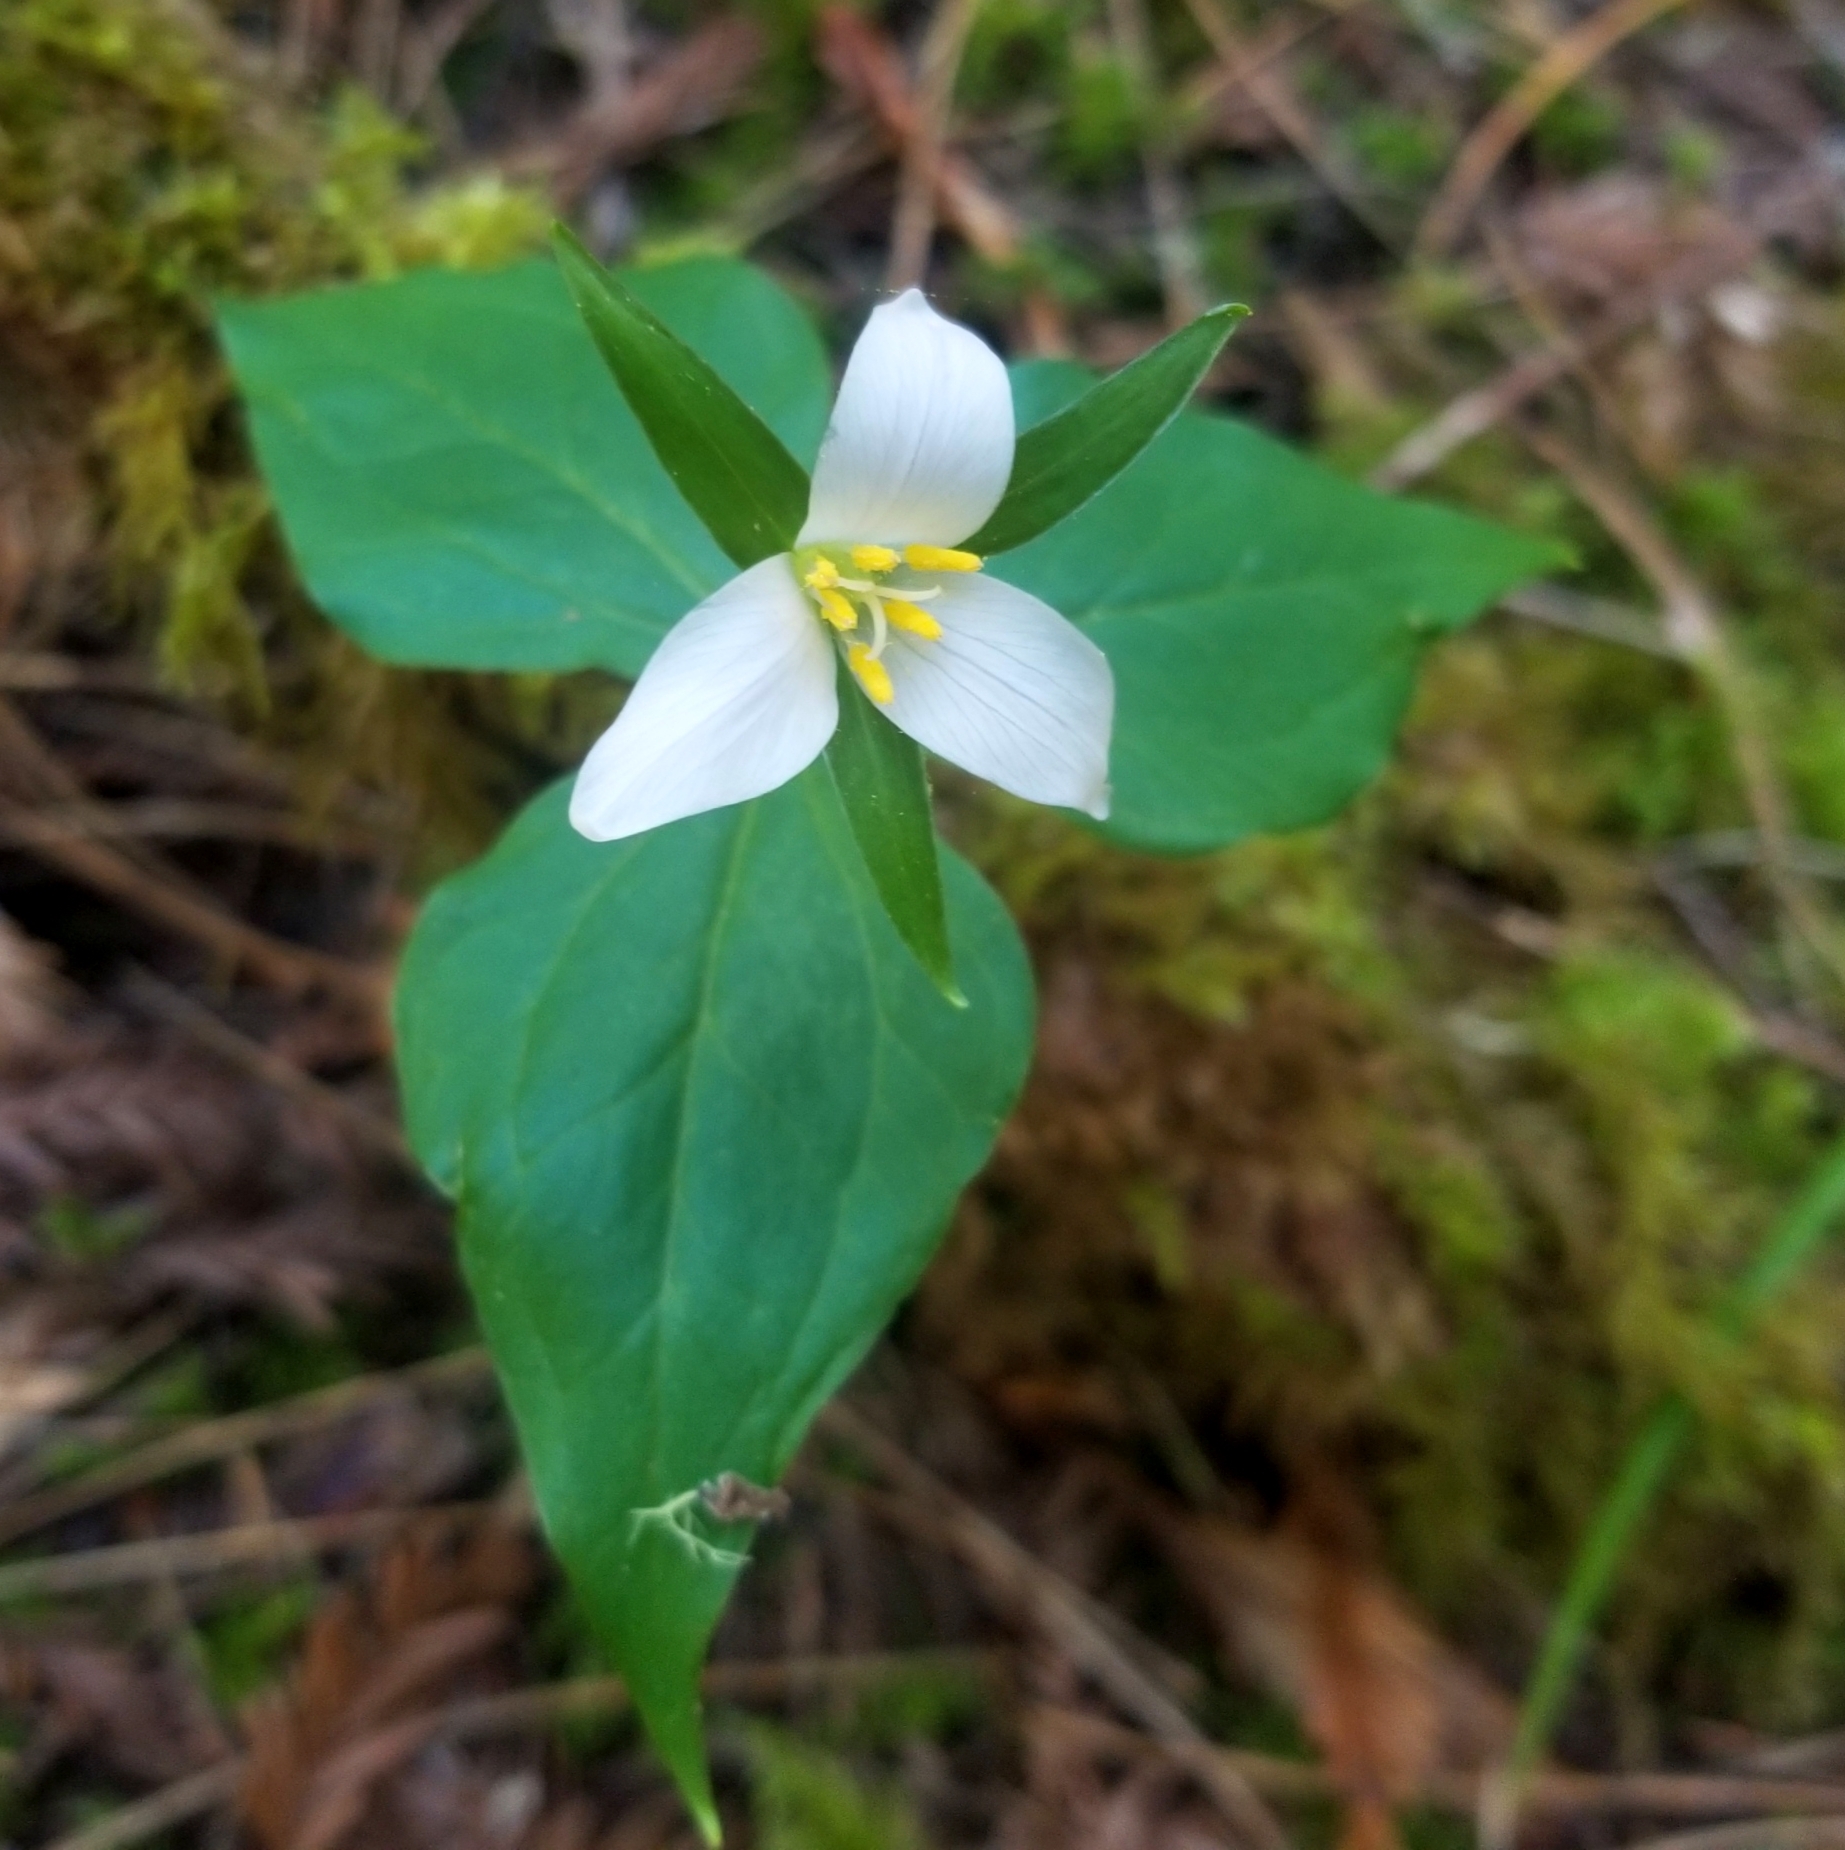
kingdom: Plantae
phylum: Tracheophyta
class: Liliopsida
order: Liliales
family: Melanthiaceae
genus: Trillium
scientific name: Trillium ovatum
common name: Pacific trillium
